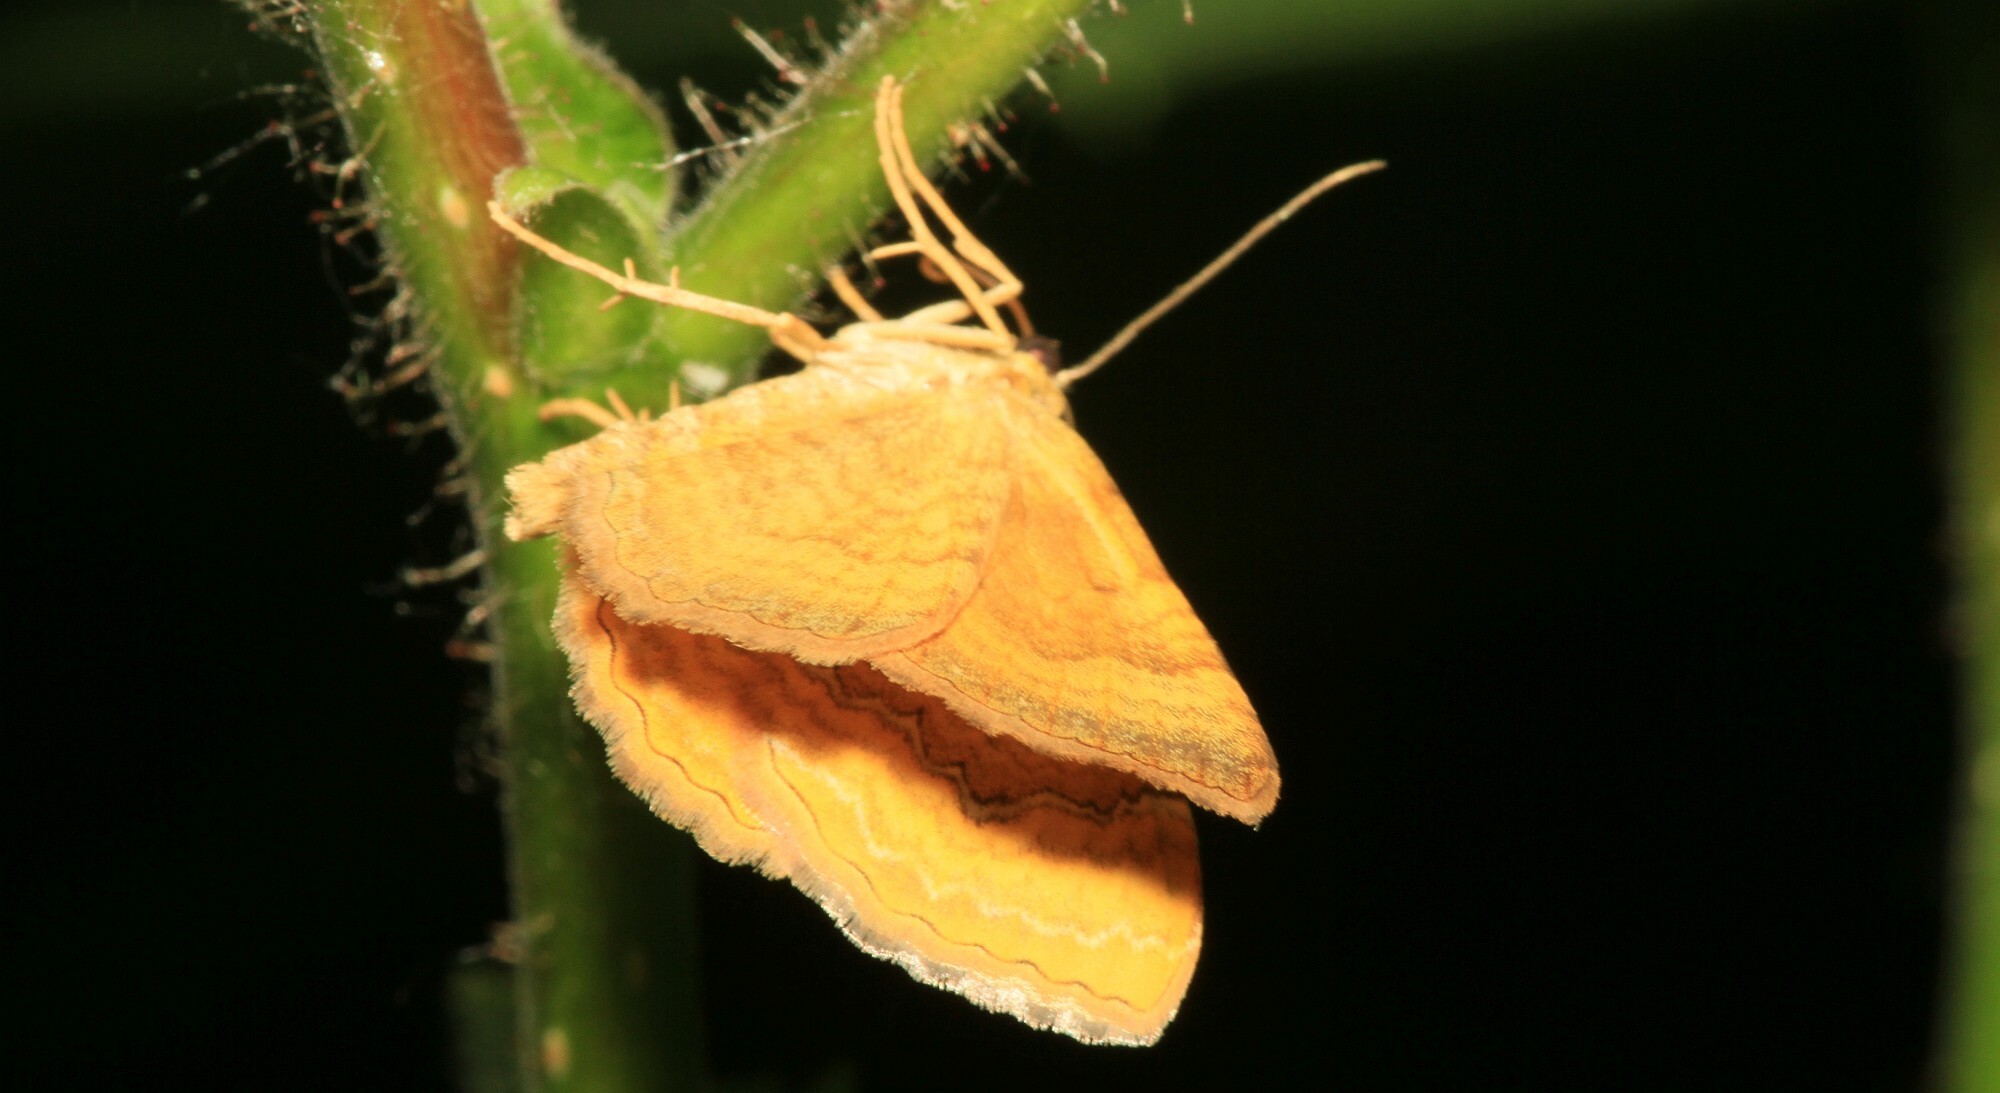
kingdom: Animalia
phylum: Arthropoda
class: Insecta
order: Lepidoptera
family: Geometridae
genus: Camptogramma
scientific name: Camptogramma bilineata
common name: Yellow shell
